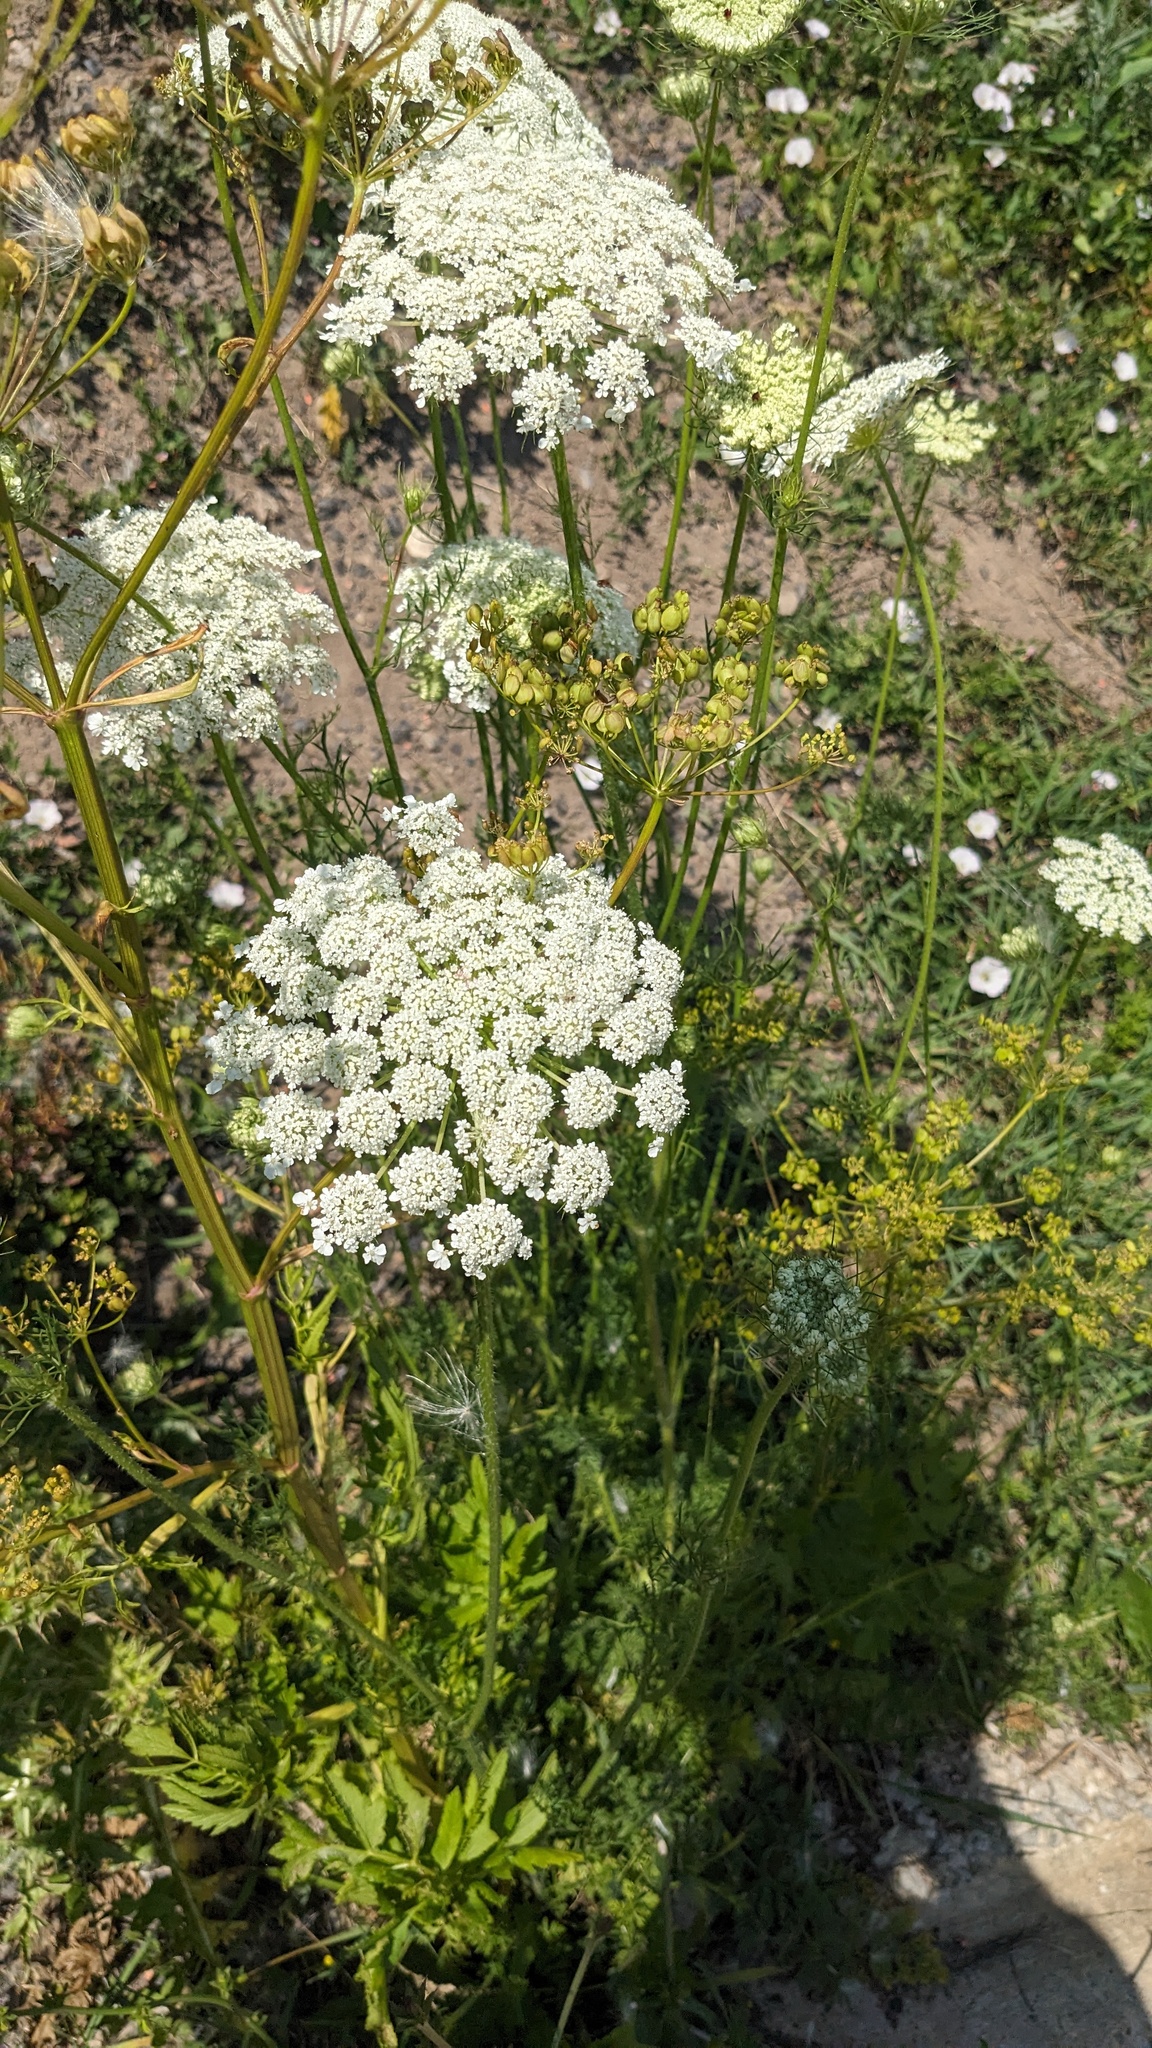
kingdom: Plantae
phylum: Tracheophyta
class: Magnoliopsida
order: Apiales
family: Apiaceae
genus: Daucus
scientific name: Daucus carota
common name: Wild carrot
